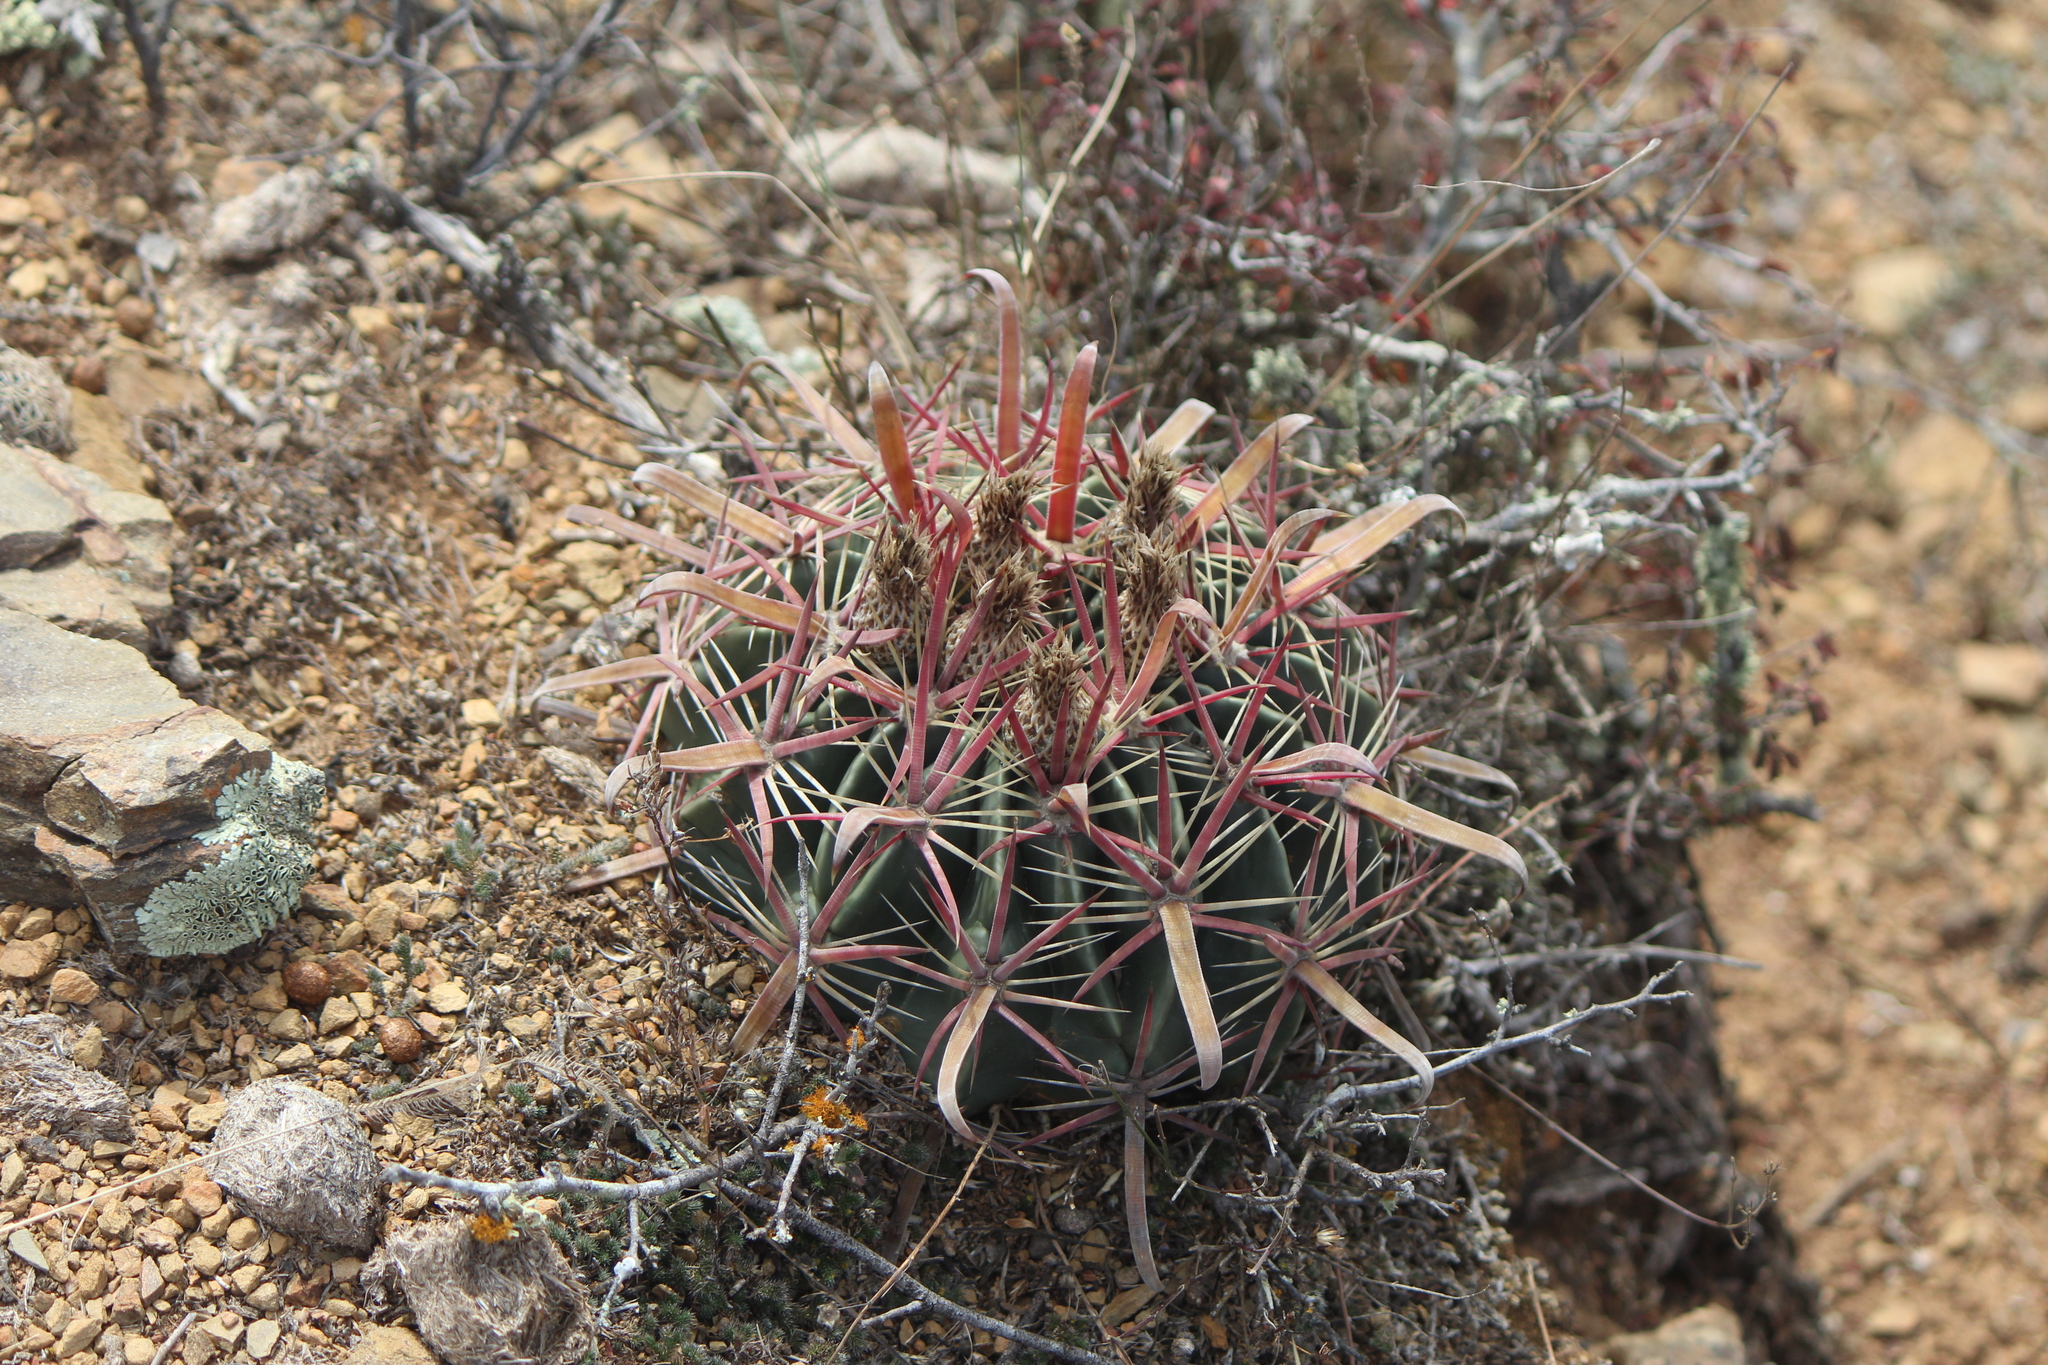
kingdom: Plantae
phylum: Tracheophyta
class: Magnoliopsida
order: Caryophyllales
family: Cactaceae
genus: Ferocactus
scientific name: Ferocactus latispinus
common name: Devil's-tongue cactus
